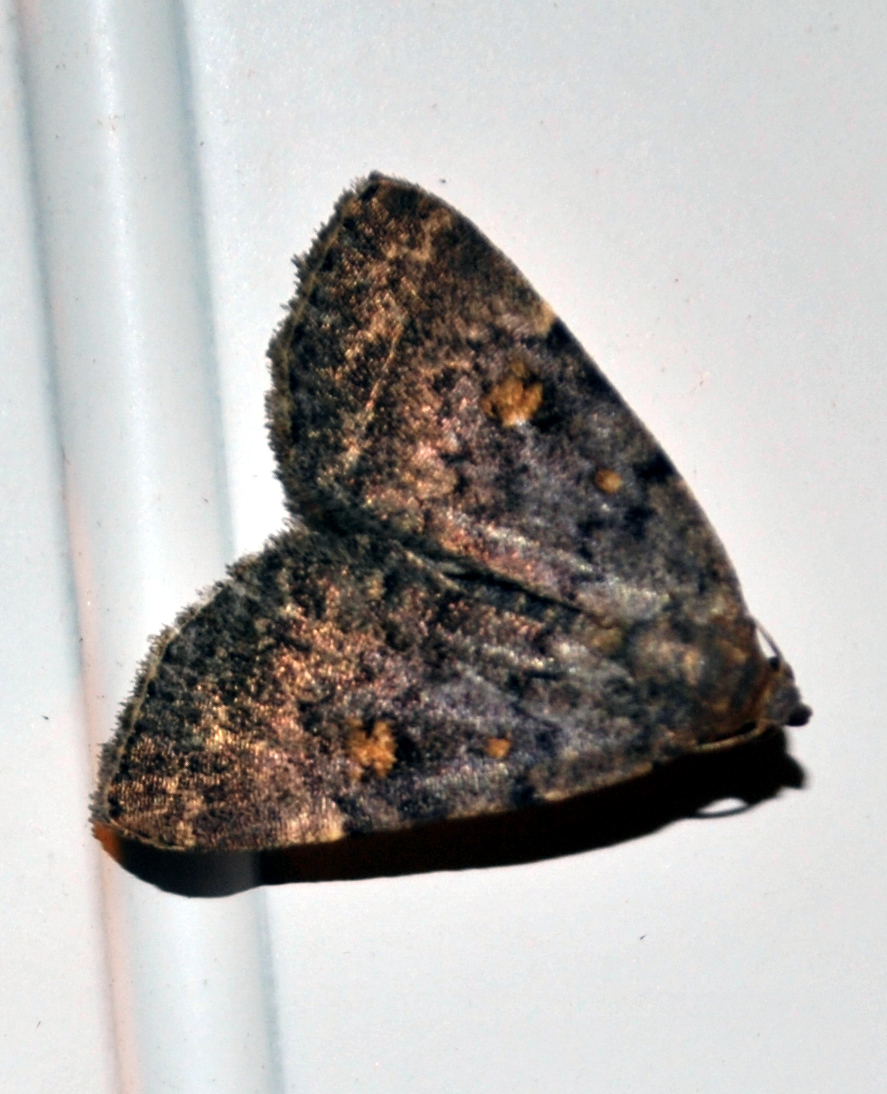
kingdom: Animalia
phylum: Arthropoda
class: Insecta
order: Lepidoptera
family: Erebidae
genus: Idia
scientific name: Idia aemula
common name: Common idia moth
